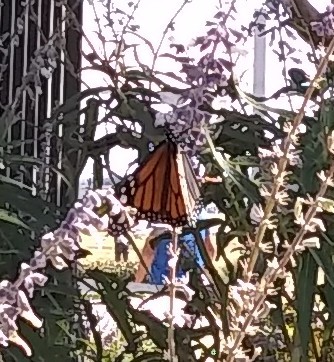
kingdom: Animalia
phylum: Arthropoda
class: Insecta
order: Lepidoptera
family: Nymphalidae
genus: Danaus
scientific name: Danaus plexippus
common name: Monarch
